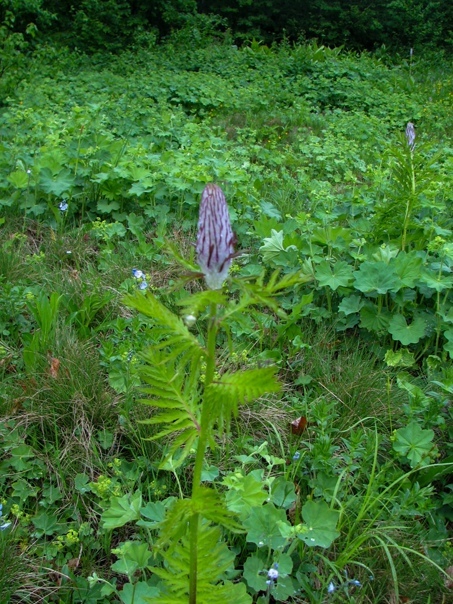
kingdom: Plantae
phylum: Tracheophyta
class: Magnoliopsida
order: Lamiales
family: Orobanchaceae
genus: Pedicularis
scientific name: Pedicularis atropurpurea
